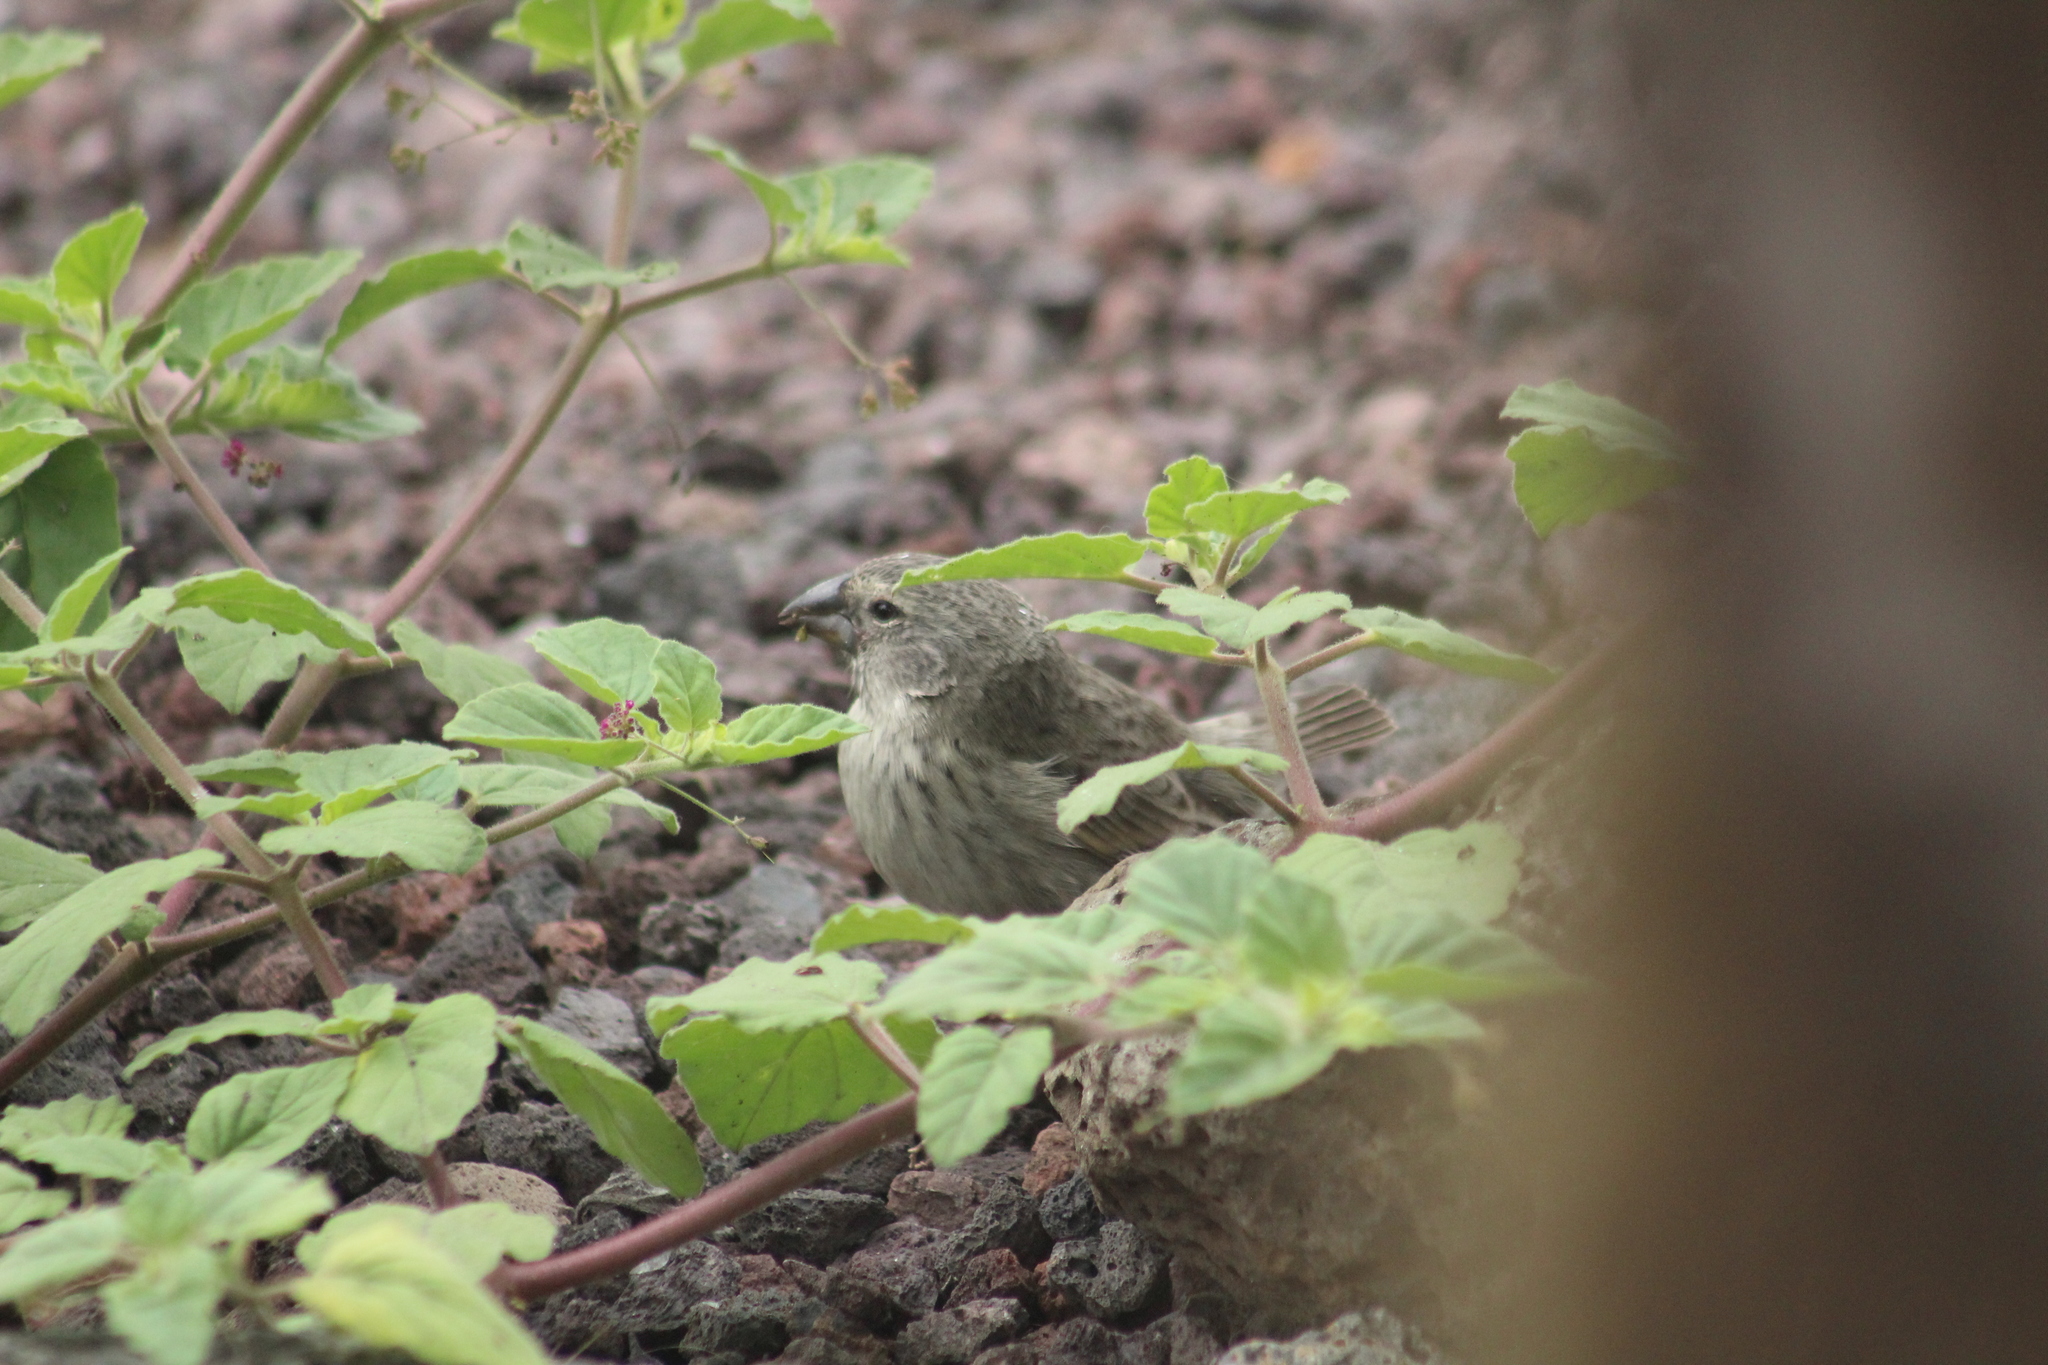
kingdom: Animalia
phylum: Chordata
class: Aves
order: Passeriformes
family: Thraupidae
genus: Geospiza
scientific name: Geospiza fortis
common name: Medium ground finch
